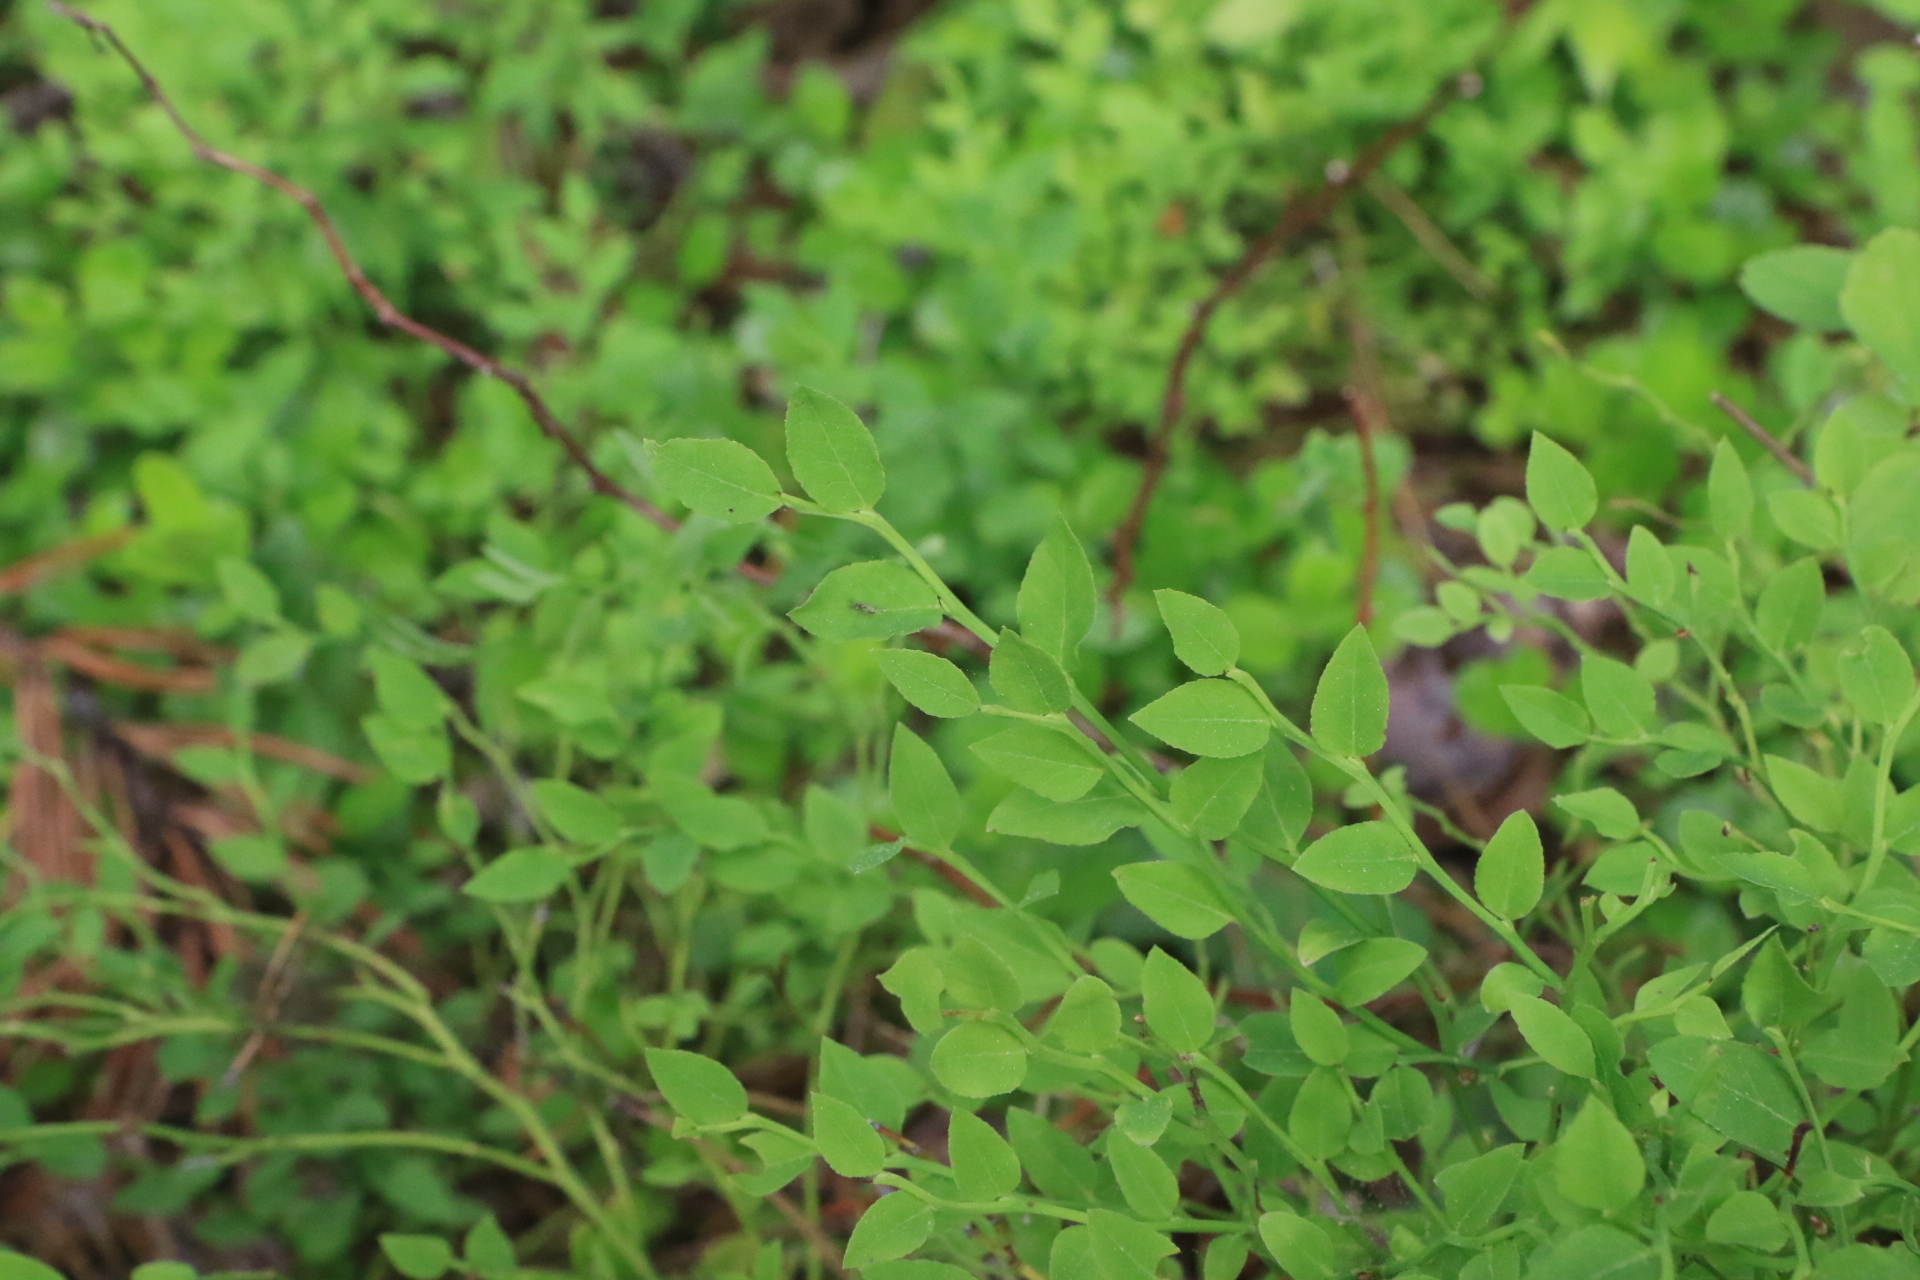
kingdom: Plantae
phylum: Tracheophyta
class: Magnoliopsida
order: Ericales
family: Ericaceae
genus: Vaccinium
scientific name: Vaccinium scoparium
